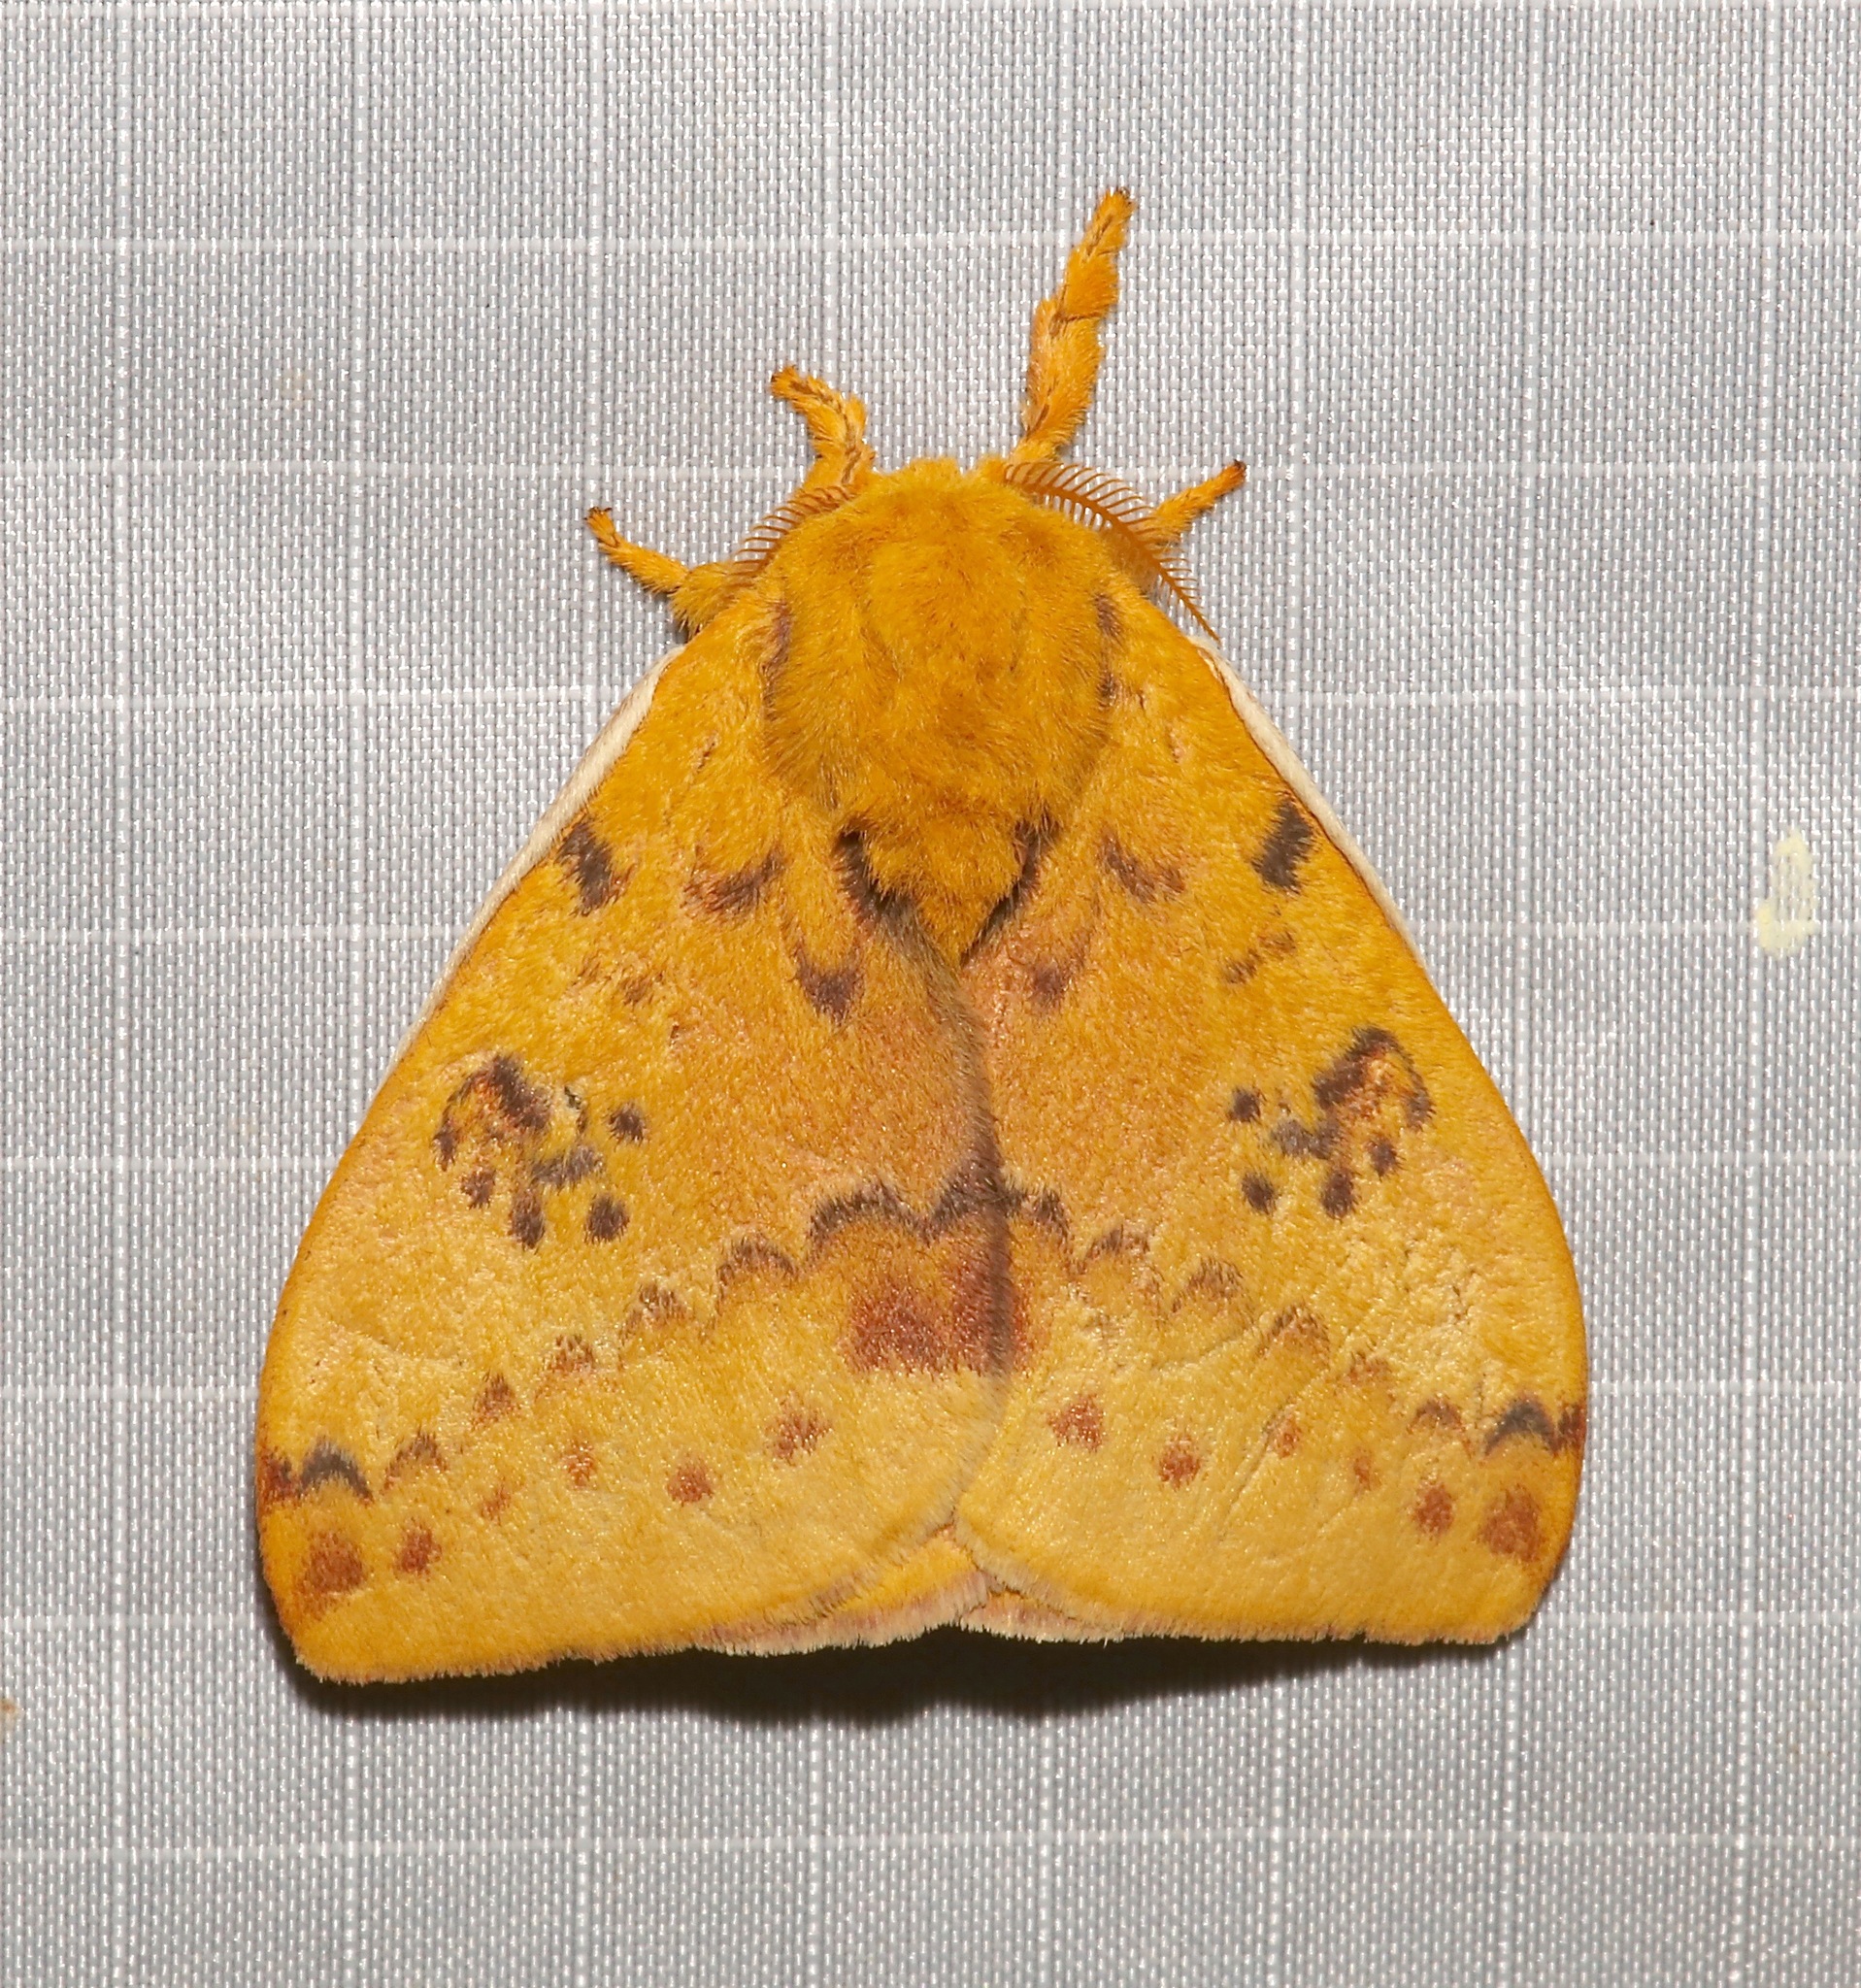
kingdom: Animalia
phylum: Arthropoda
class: Insecta
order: Lepidoptera
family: Saturniidae
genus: Automeris
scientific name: Automeris io
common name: Io moth
